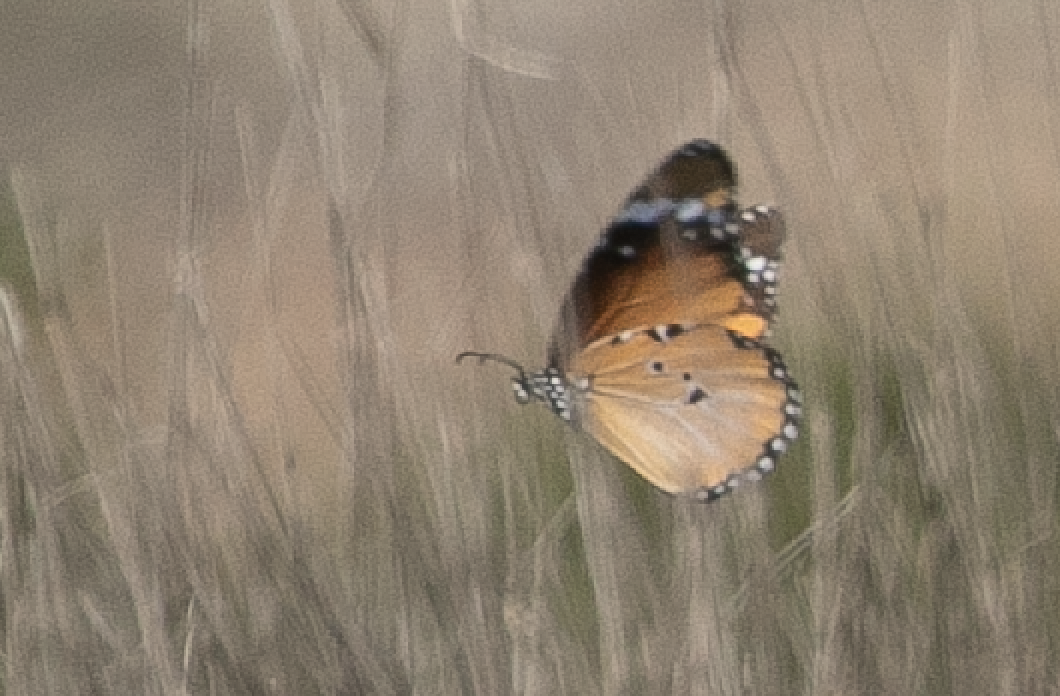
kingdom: Animalia
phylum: Arthropoda
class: Insecta
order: Lepidoptera
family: Nymphalidae
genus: Danaus
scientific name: Danaus chrysippus
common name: Plain tiger
